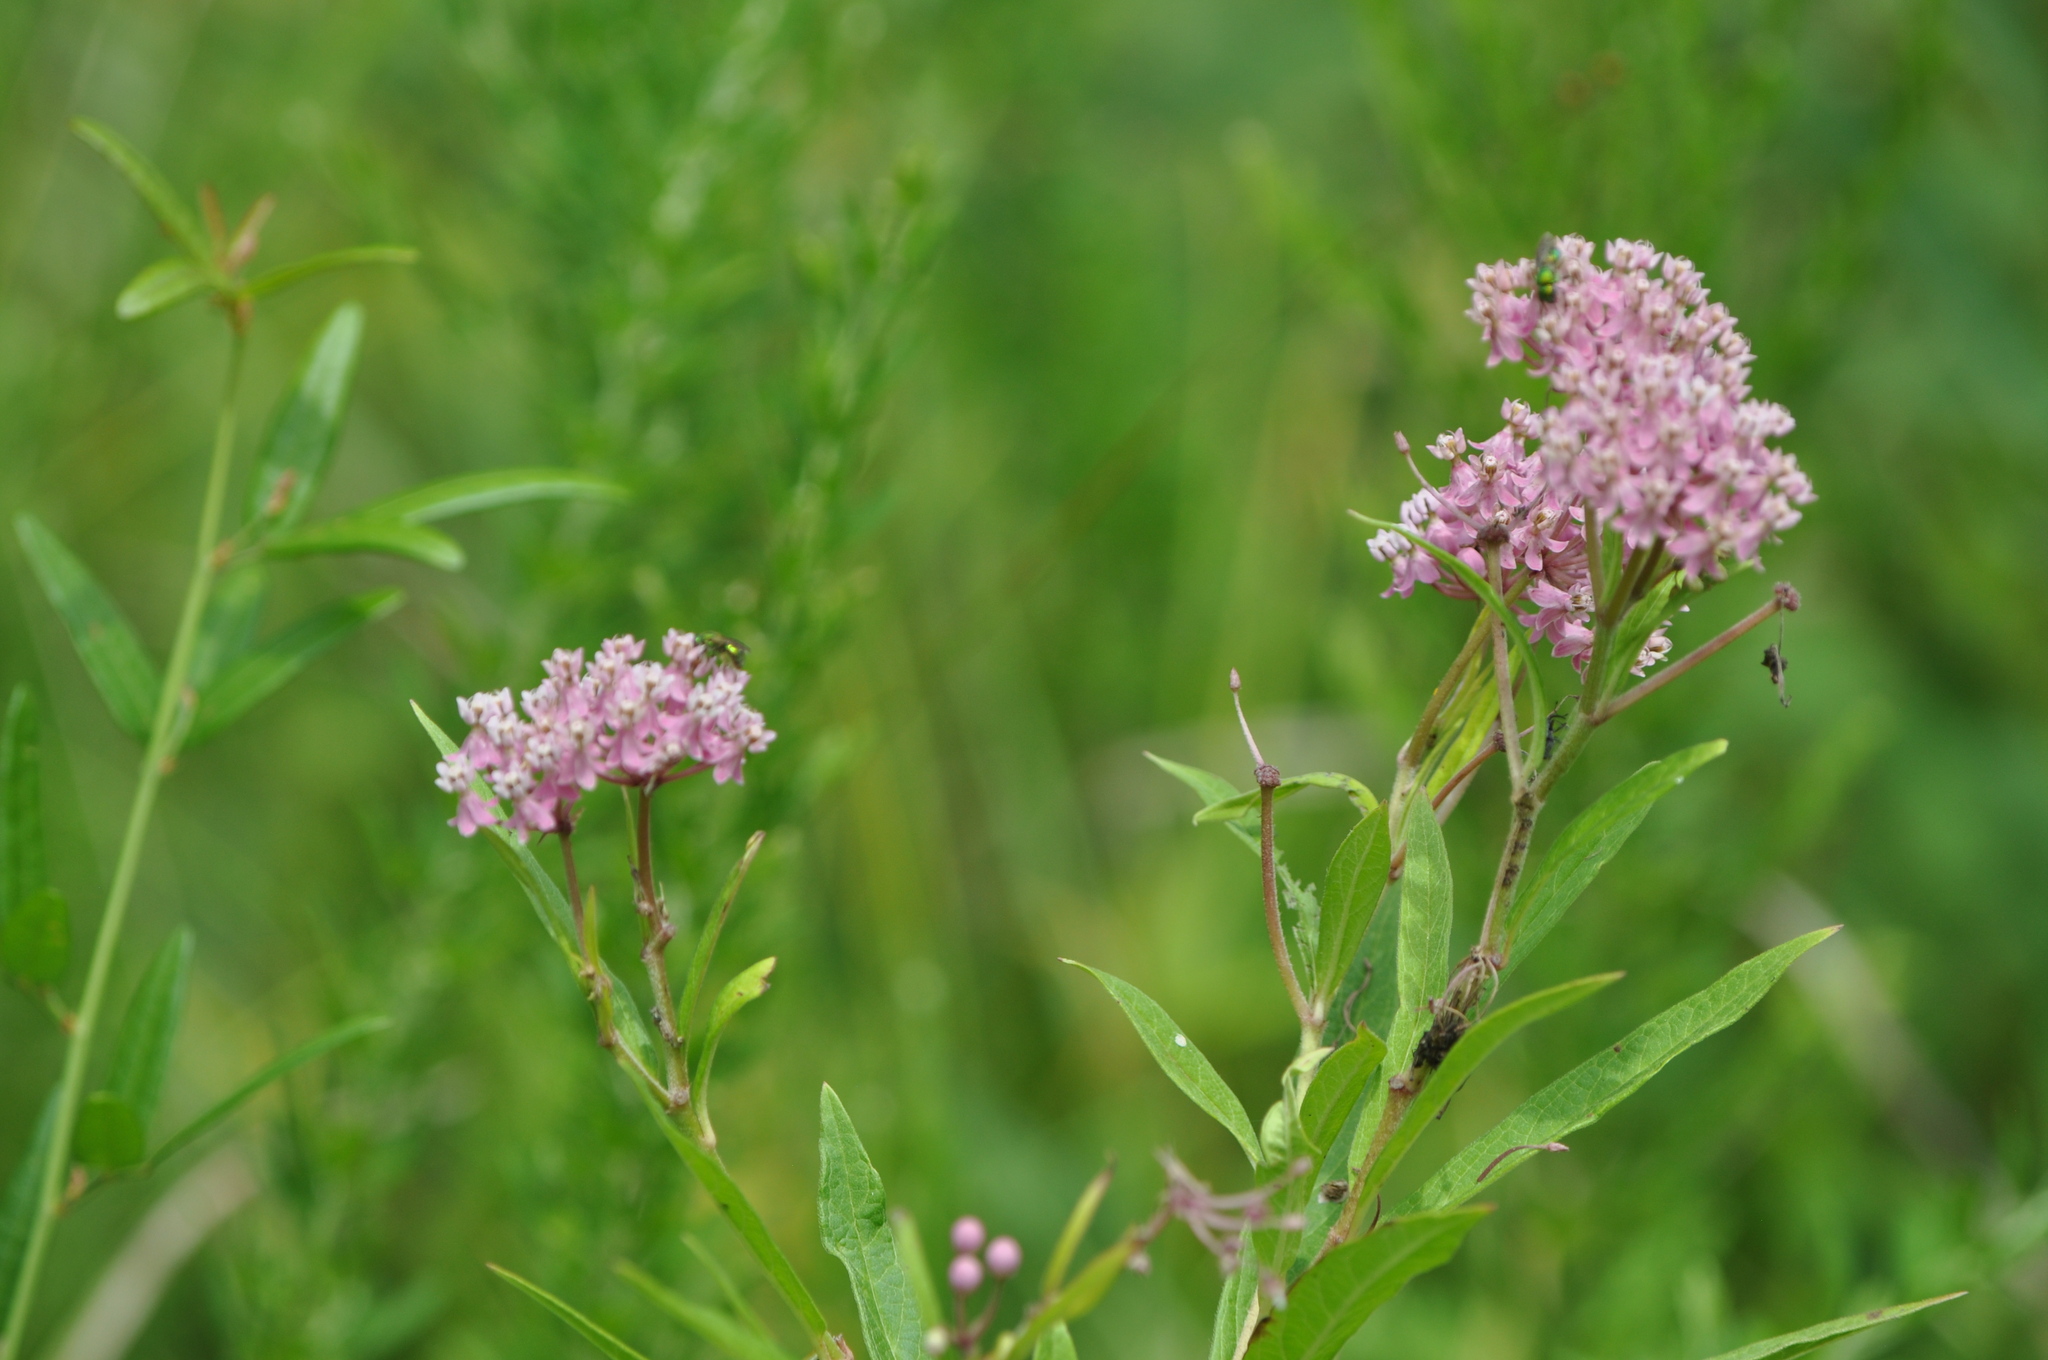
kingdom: Plantae
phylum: Tracheophyta
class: Magnoliopsida
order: Gentianales
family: Apocynaceae
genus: Asclepias
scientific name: Asclepias incarnata
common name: Swamp milkweed
